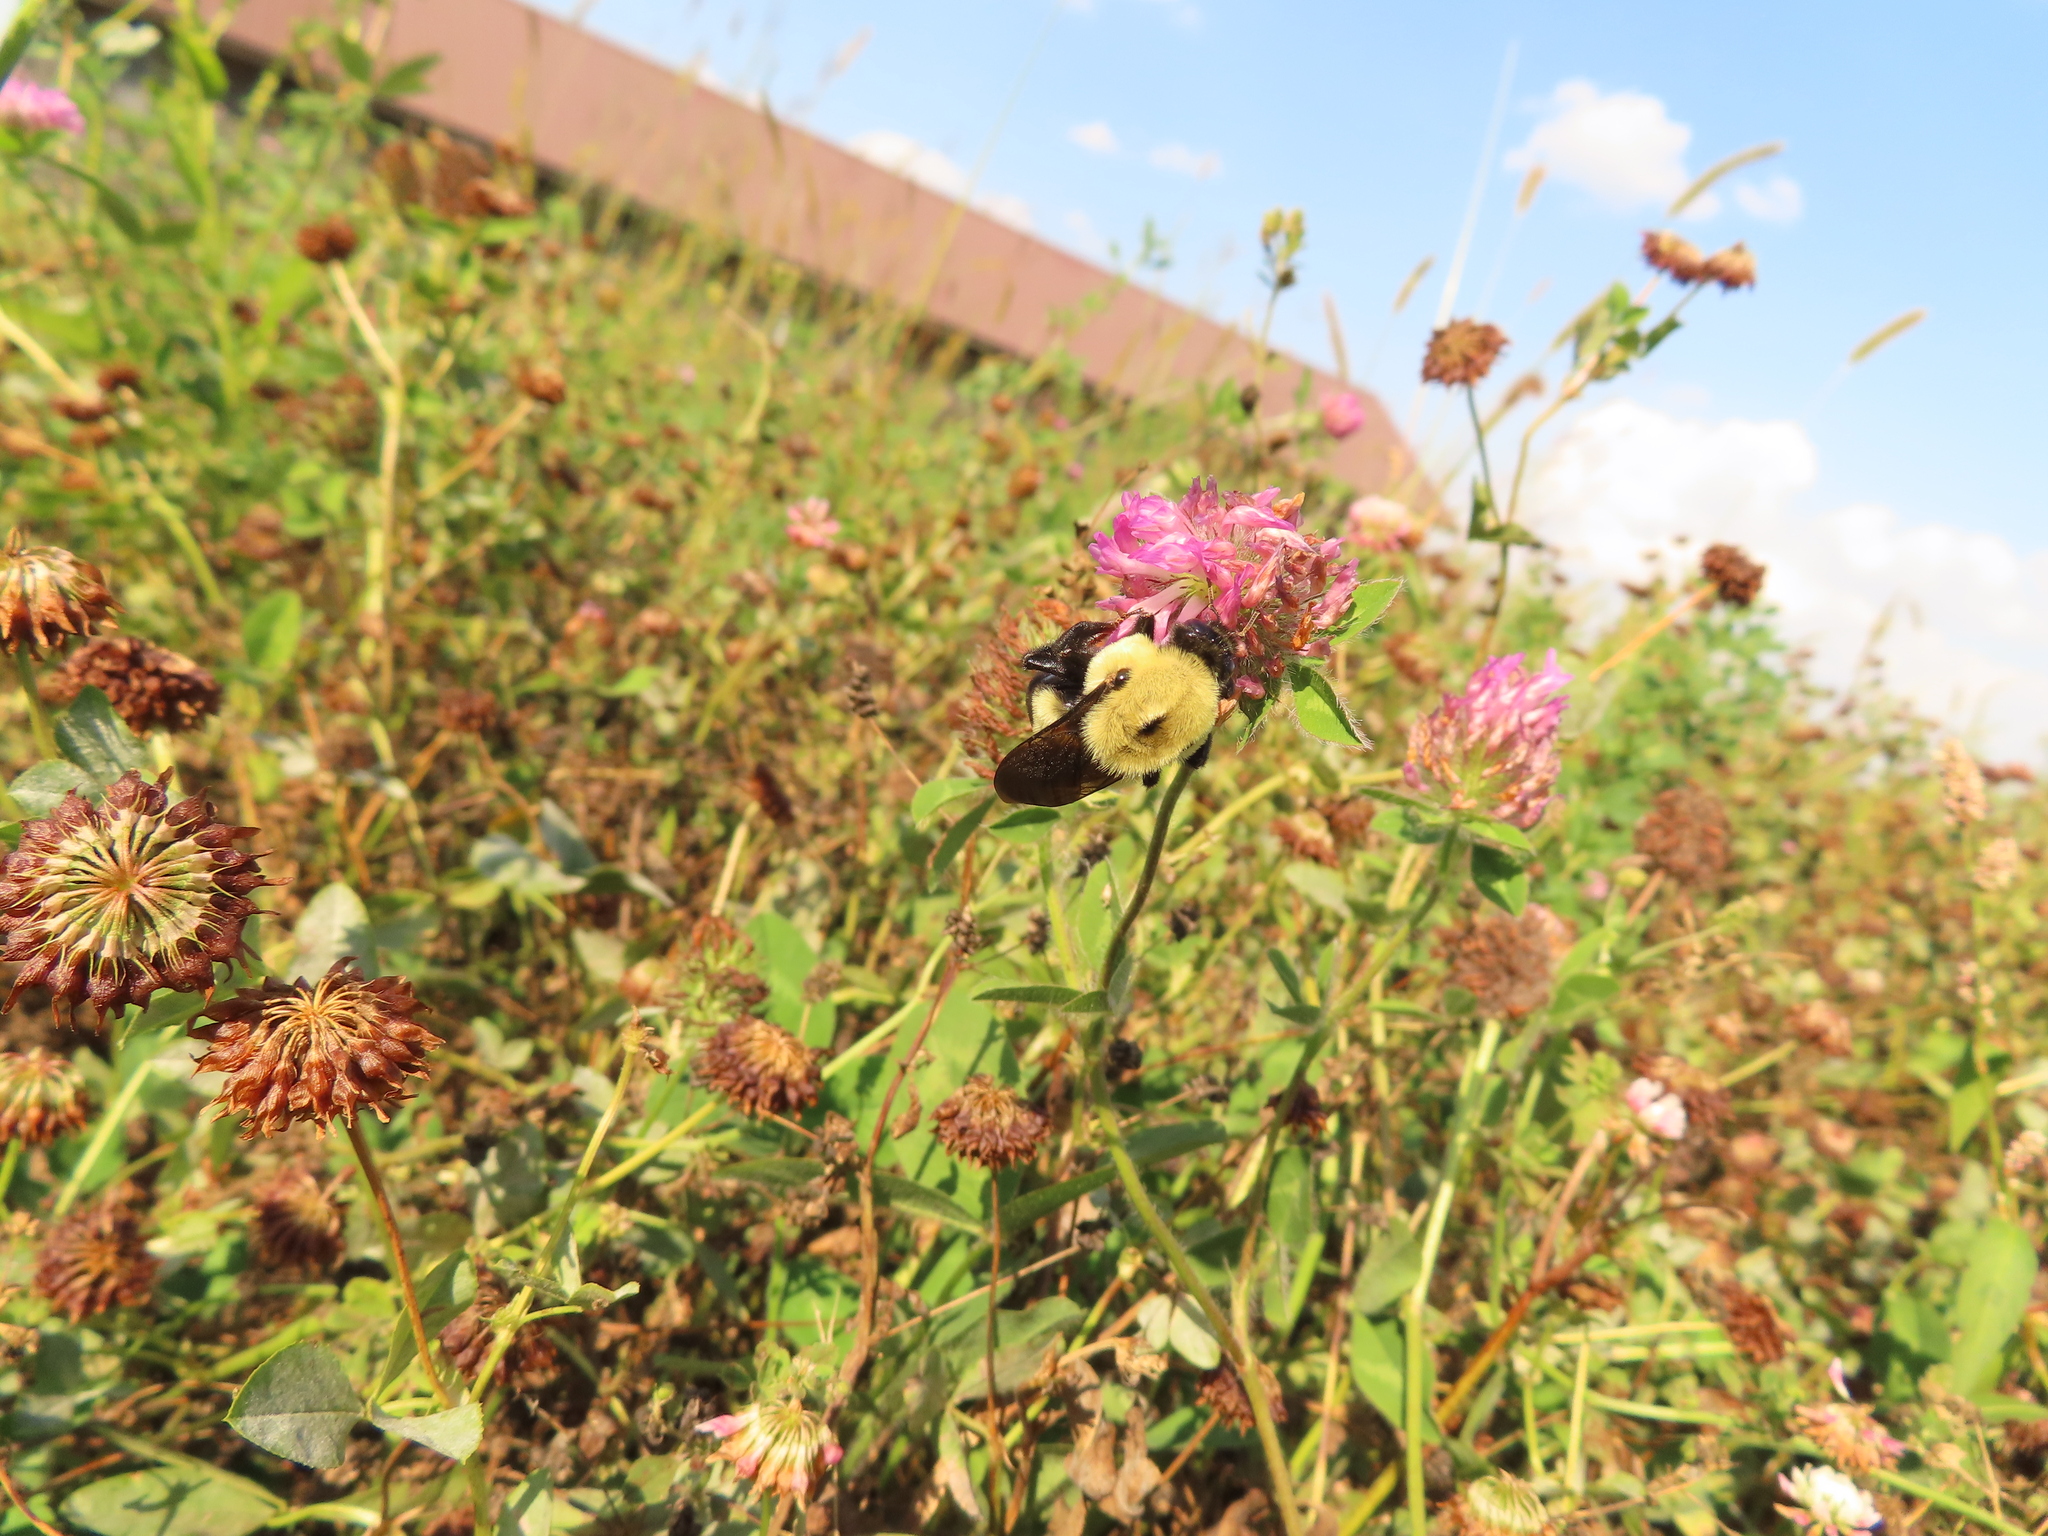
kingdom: Animalia
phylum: Arthropoda
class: Insecta
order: Hymenoptera
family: Apidae
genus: Bombus
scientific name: Bombus griseocollis
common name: Brown-belted bumble bee
